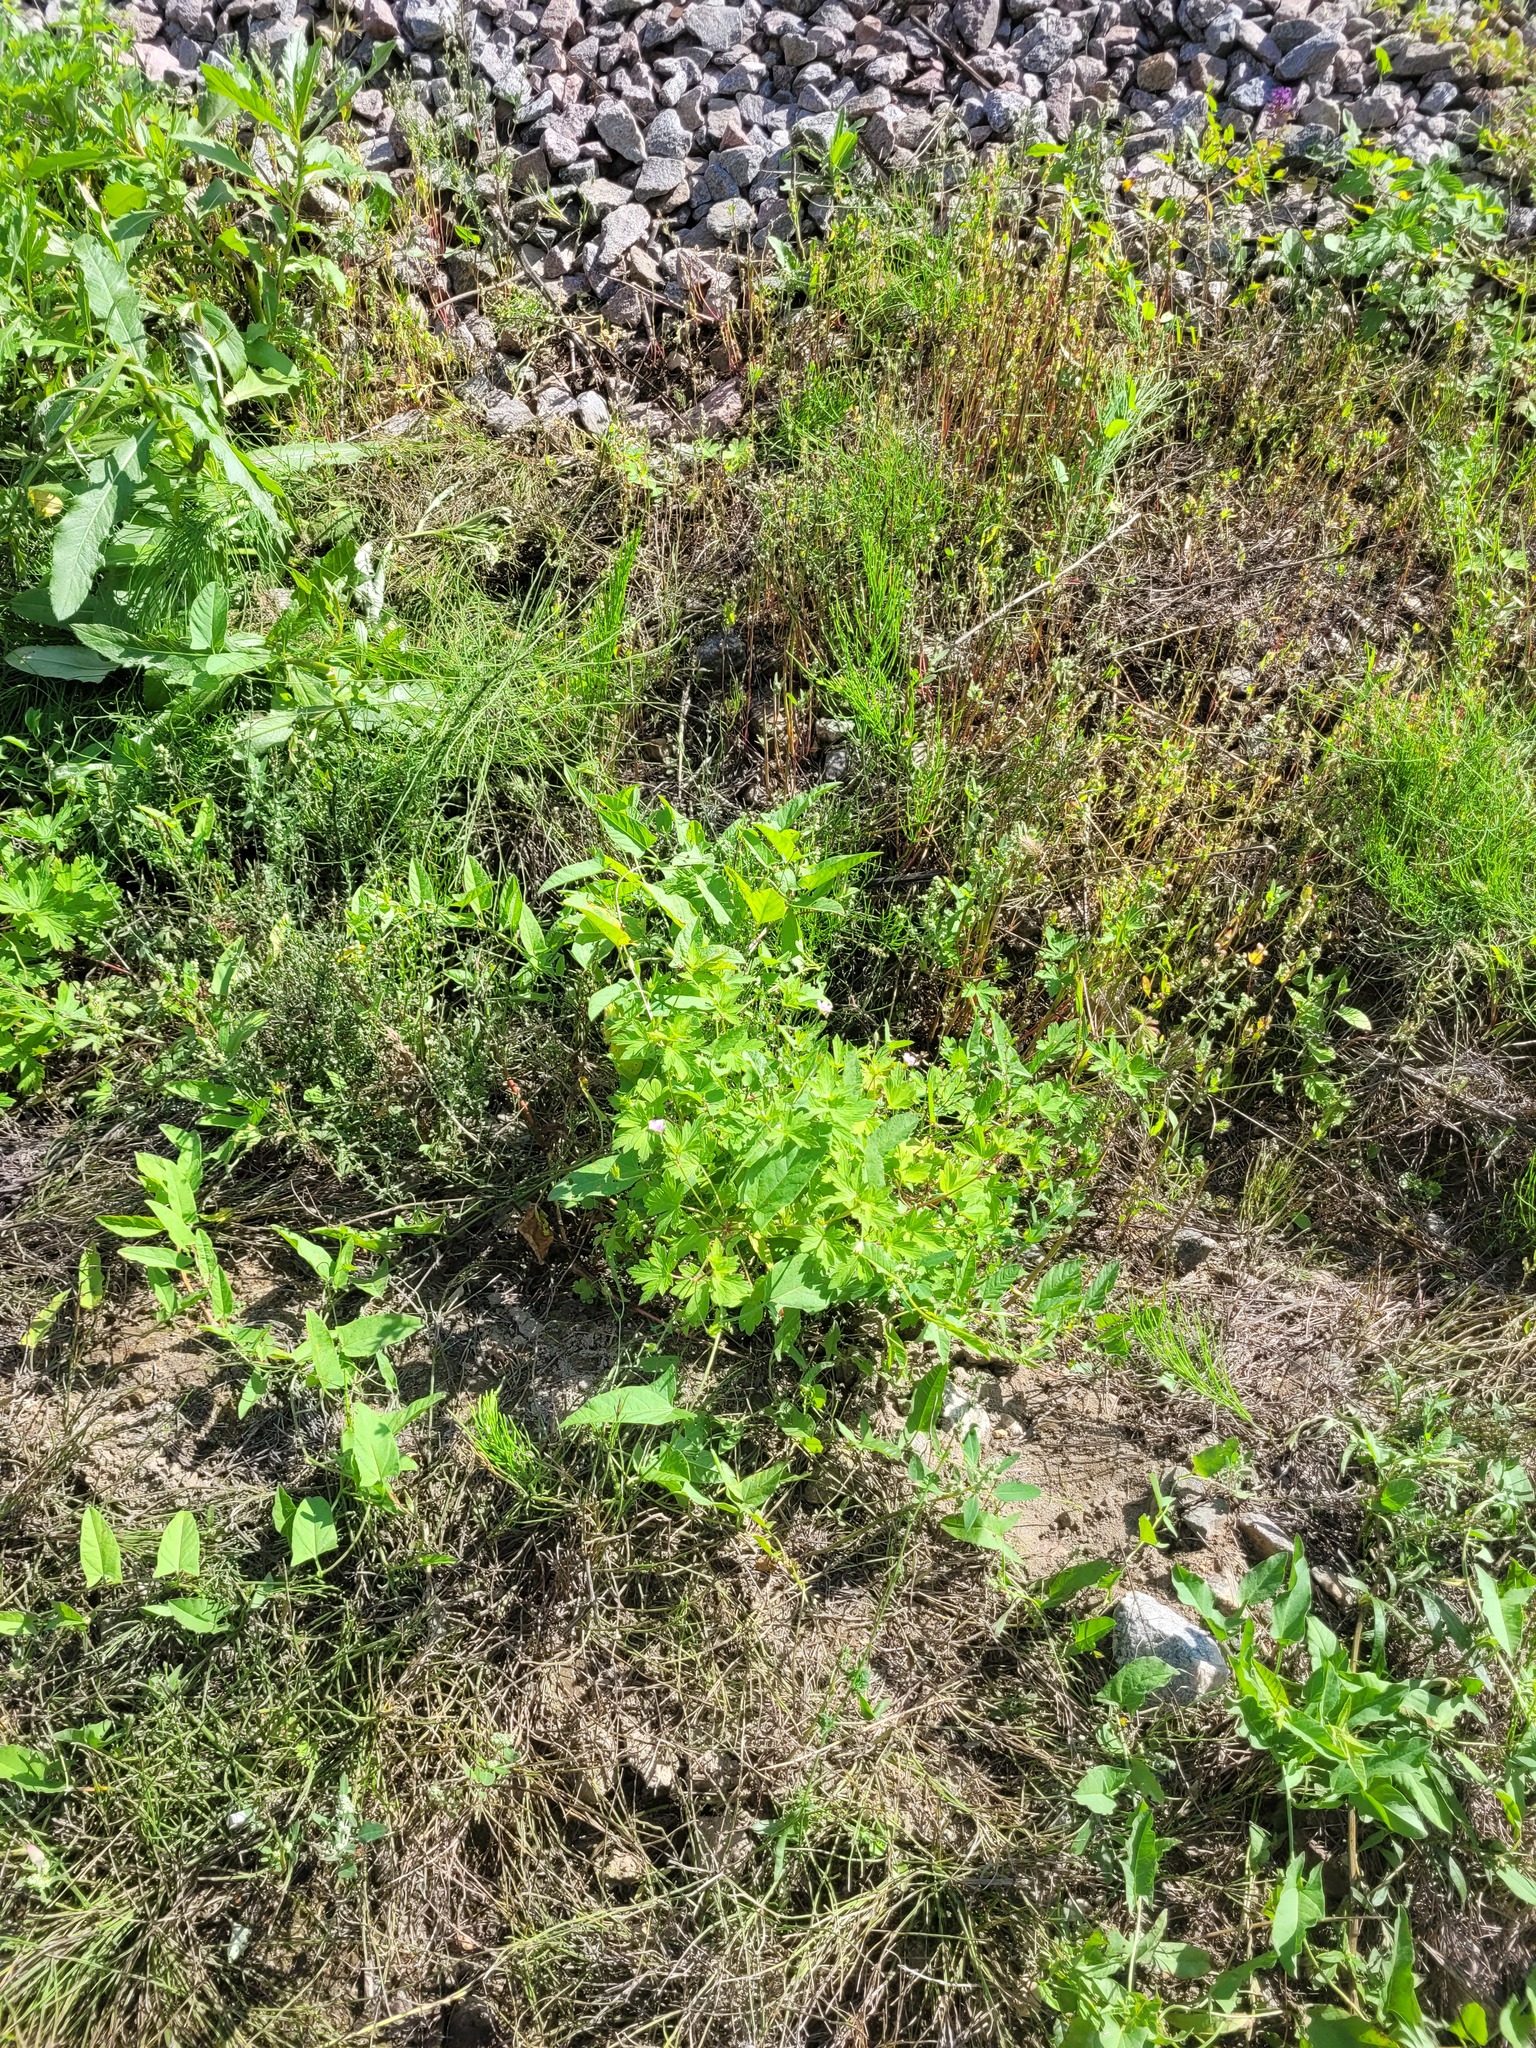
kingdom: Plantae
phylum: Tracheophyta
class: Magnoliopsida
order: Geraniales
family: Geraniaceae
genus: Geranium
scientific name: Geranium sibiricum
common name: Siberian crane's-bill
